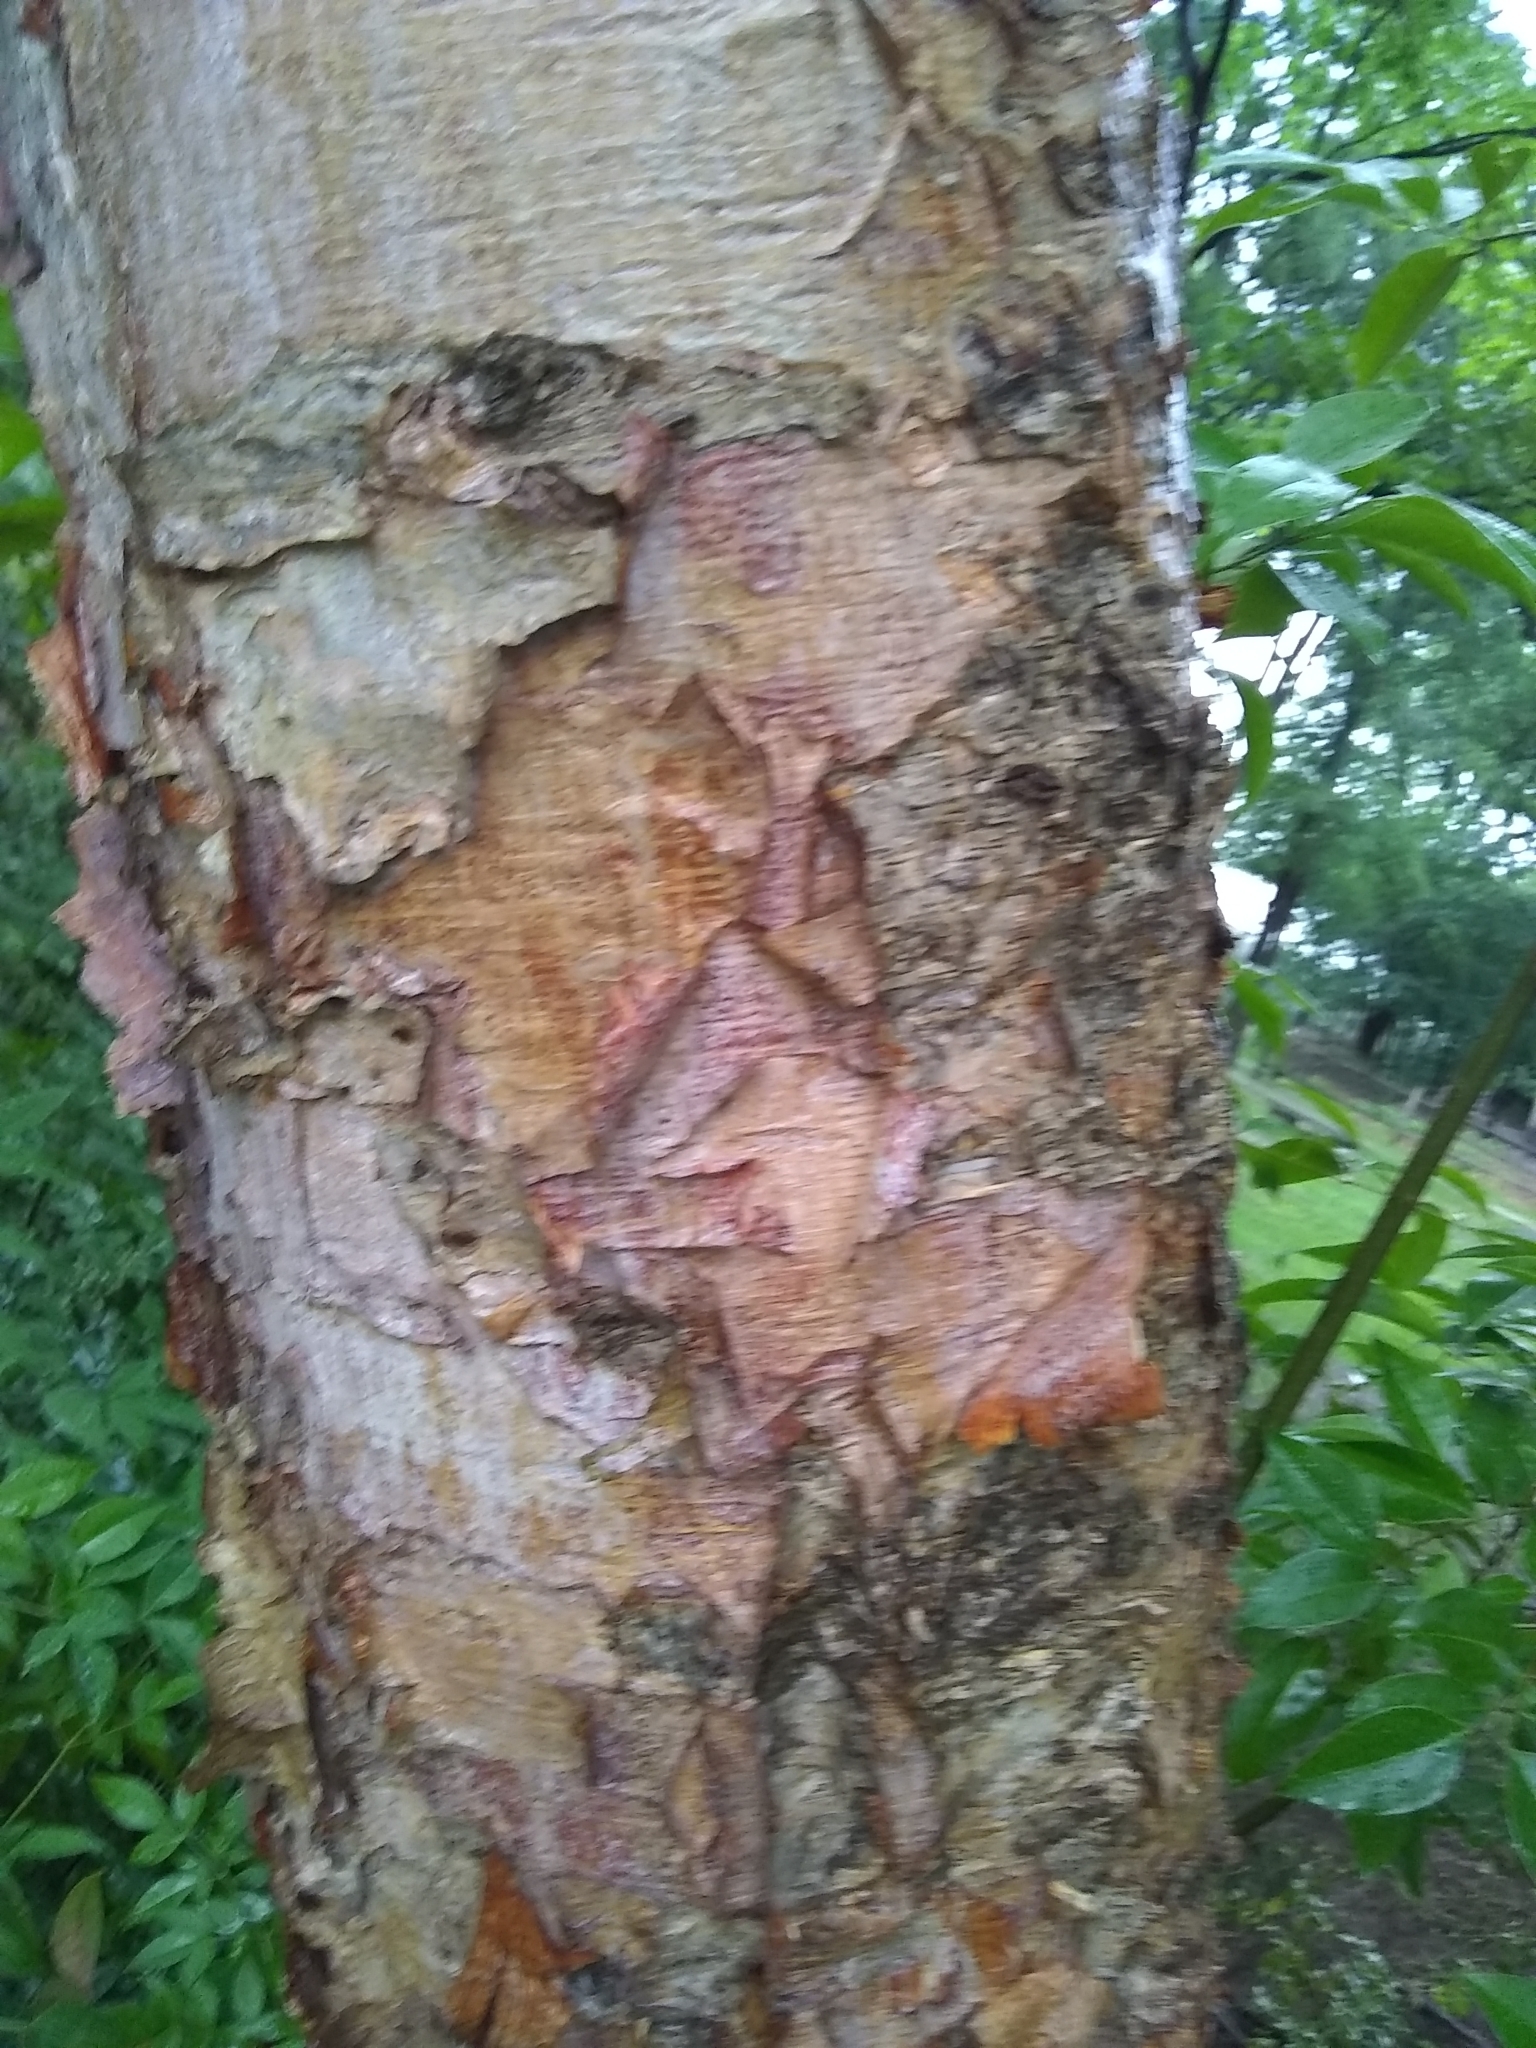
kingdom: Plantae
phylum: Tracheophyta
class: Magnoliopsida
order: Fagales
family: Betulaceae
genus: Betula
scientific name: Betula nigra
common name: Black birch
